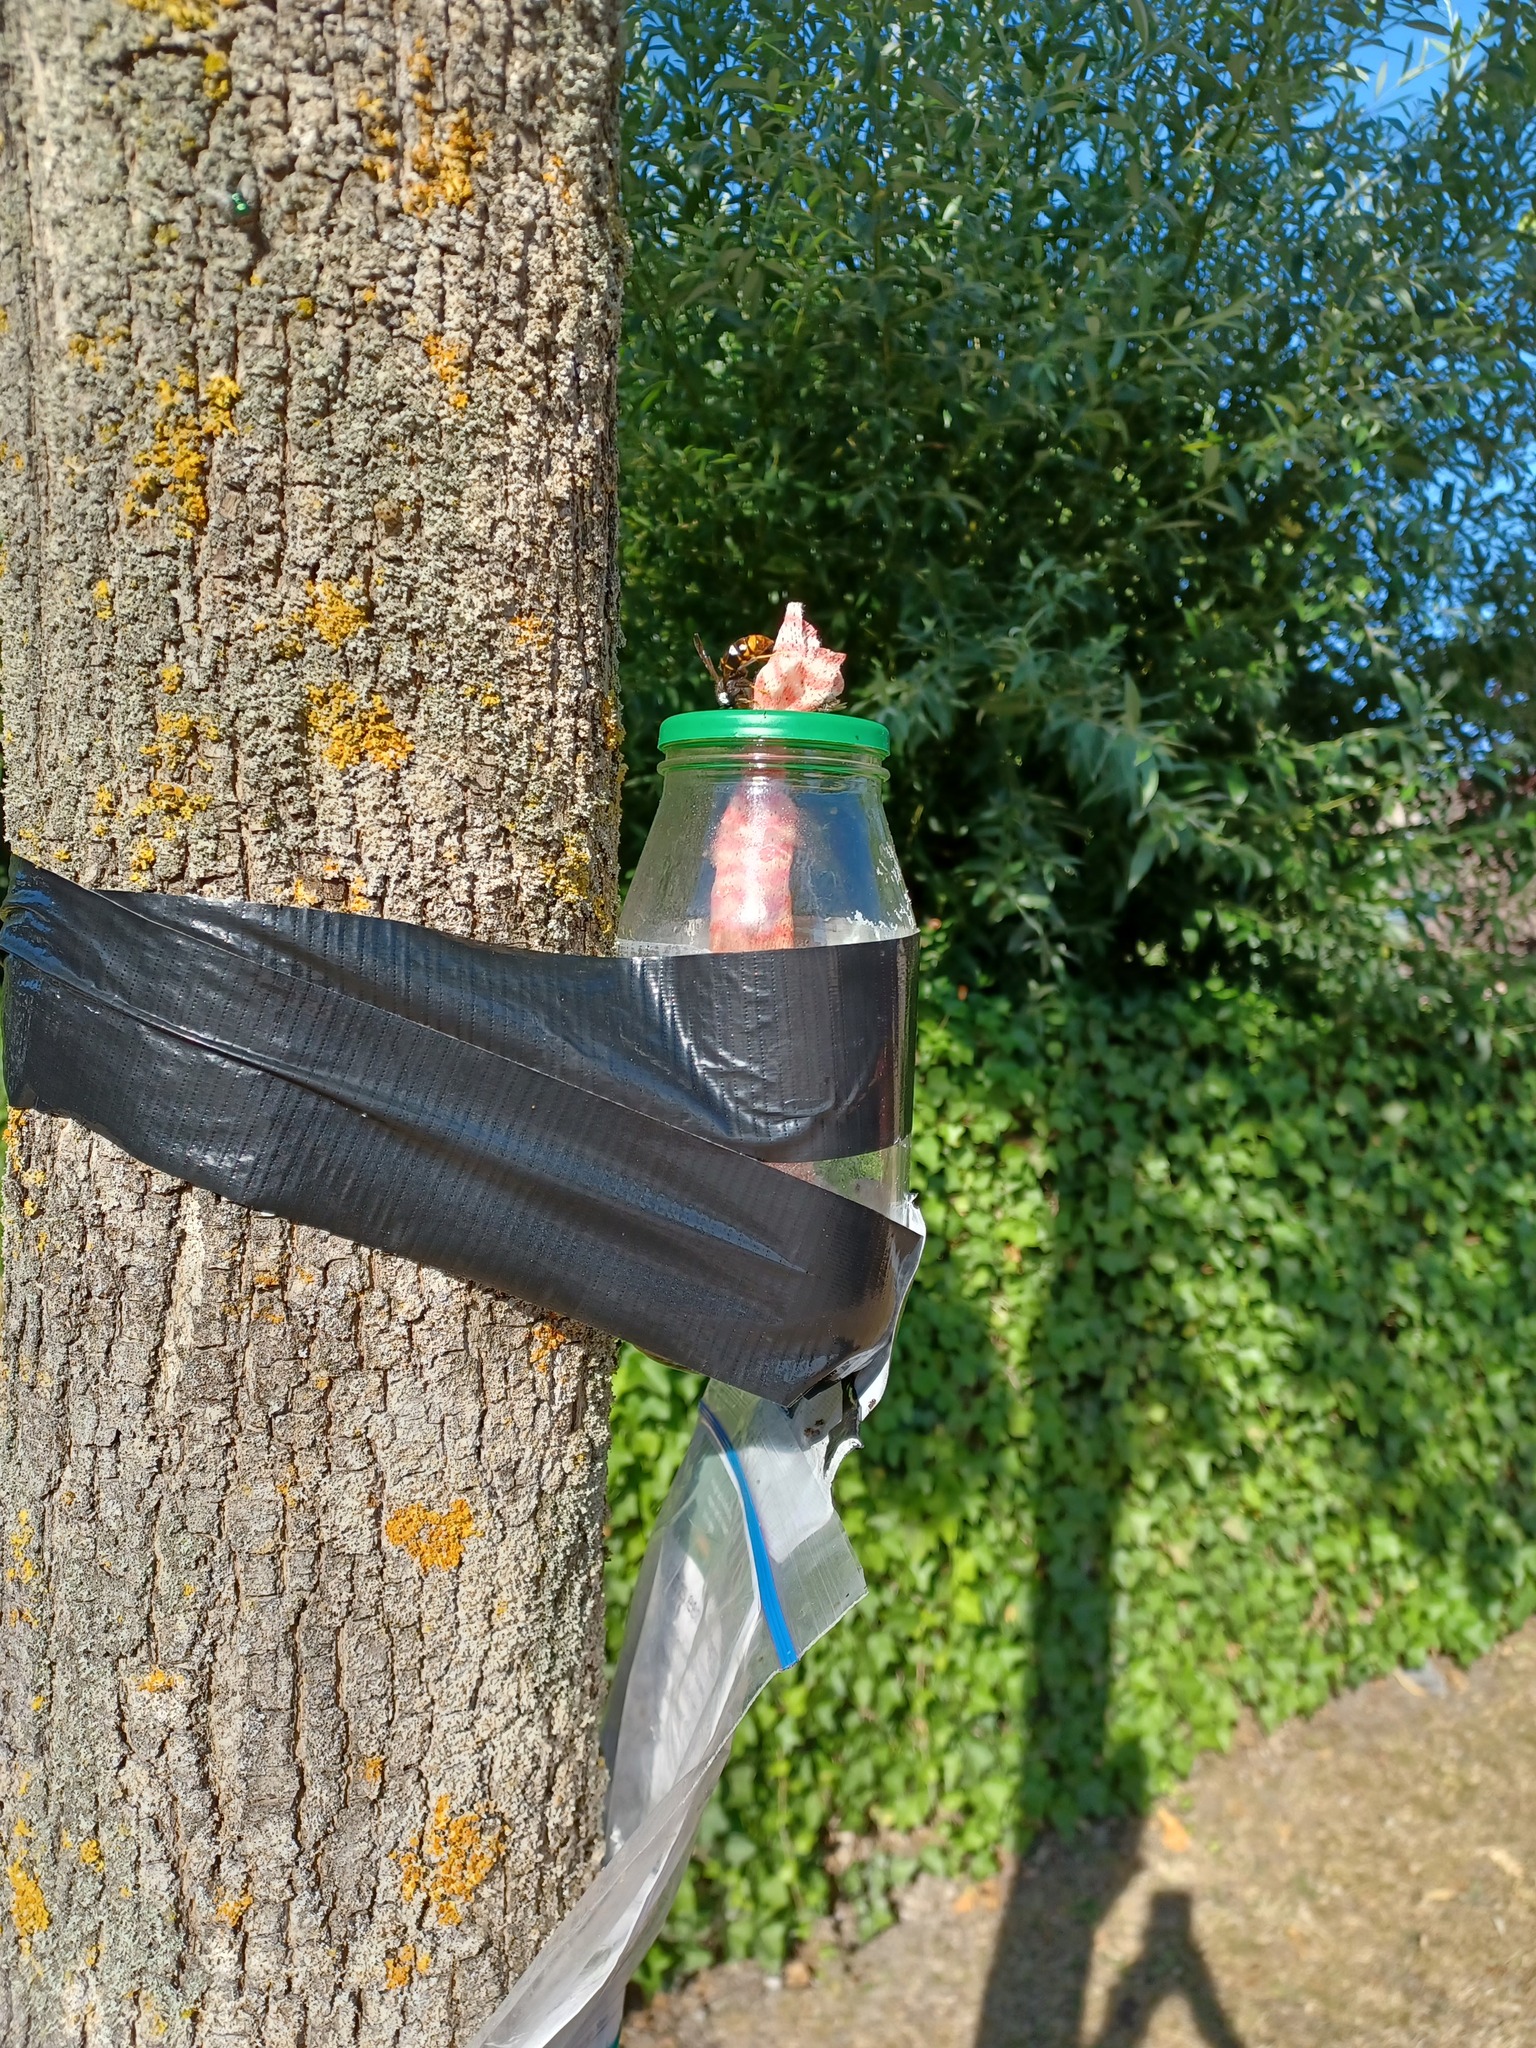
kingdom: Animalia
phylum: Arthropoda
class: Insecta
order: Hymenoptera
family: Vespidae
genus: Vespa
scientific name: Vespa velutina
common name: Asian hornet
